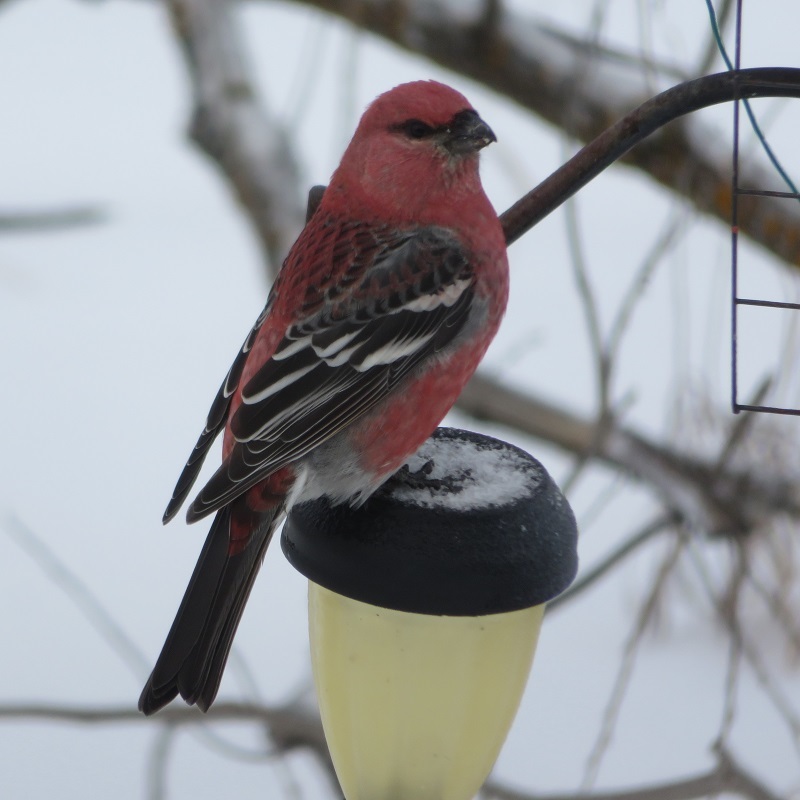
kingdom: Animalia
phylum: Chordata
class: Aves
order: Passeriformes
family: Fringillidae
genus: Pinicola
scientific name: Pinicola enucleator
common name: Pine grosbeak
